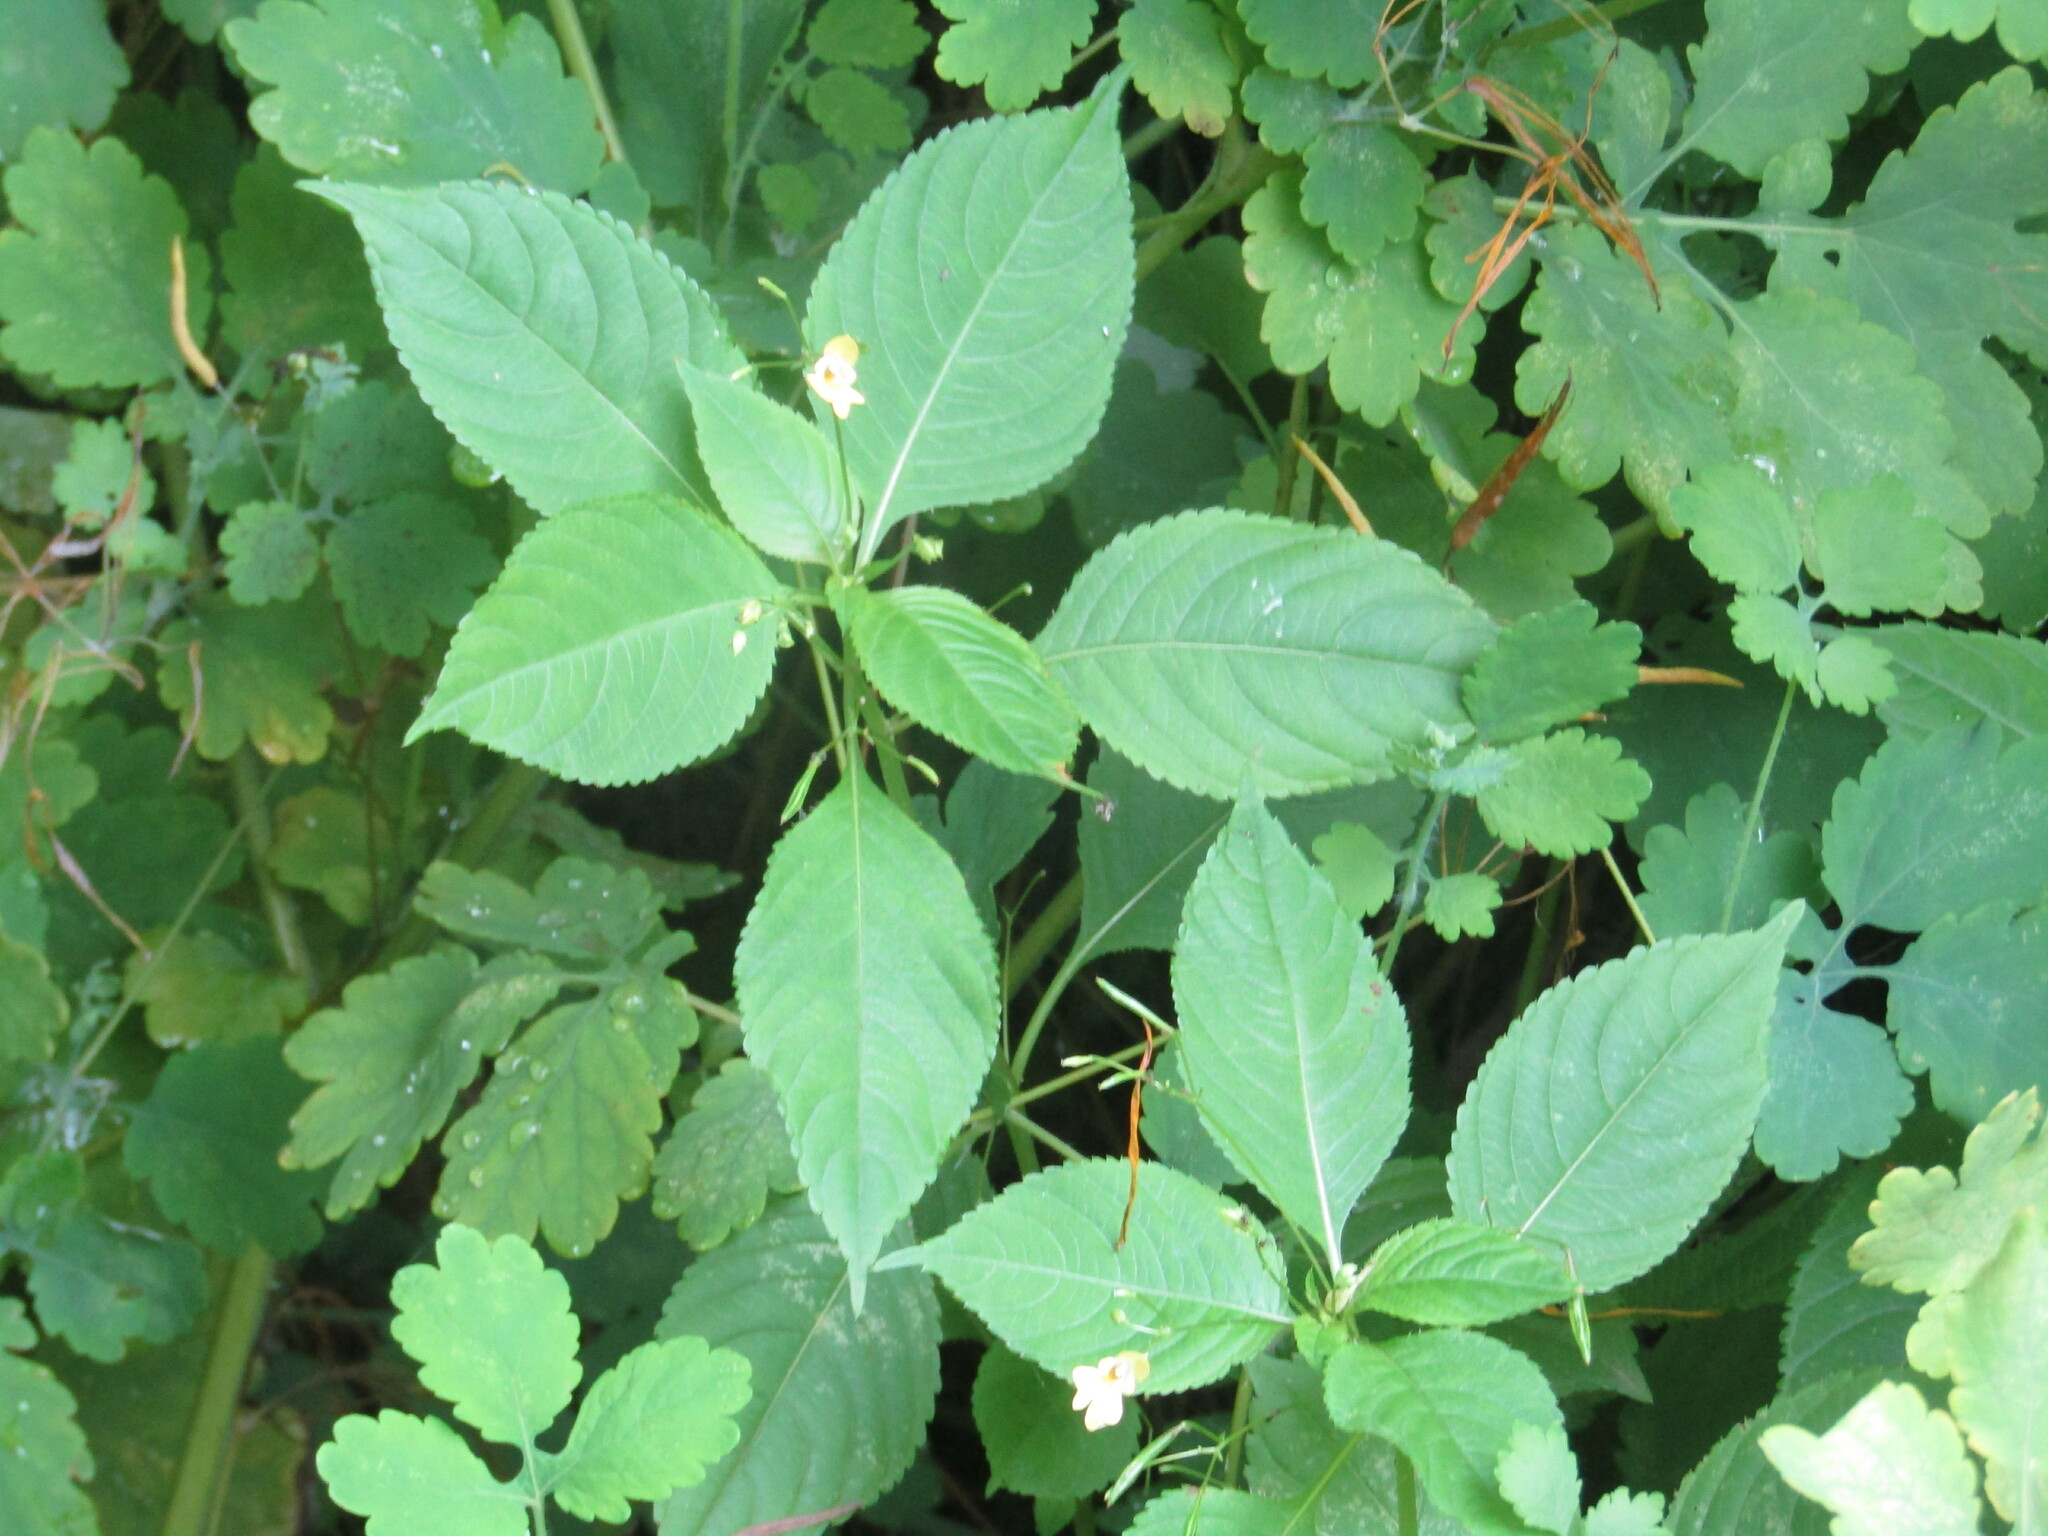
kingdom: Plantae
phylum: Tracheophyta
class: Magnoliopsida
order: Ericales
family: Balsaminaceae
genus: Impatiens
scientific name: Impatiens parviflora
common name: Small balsam
